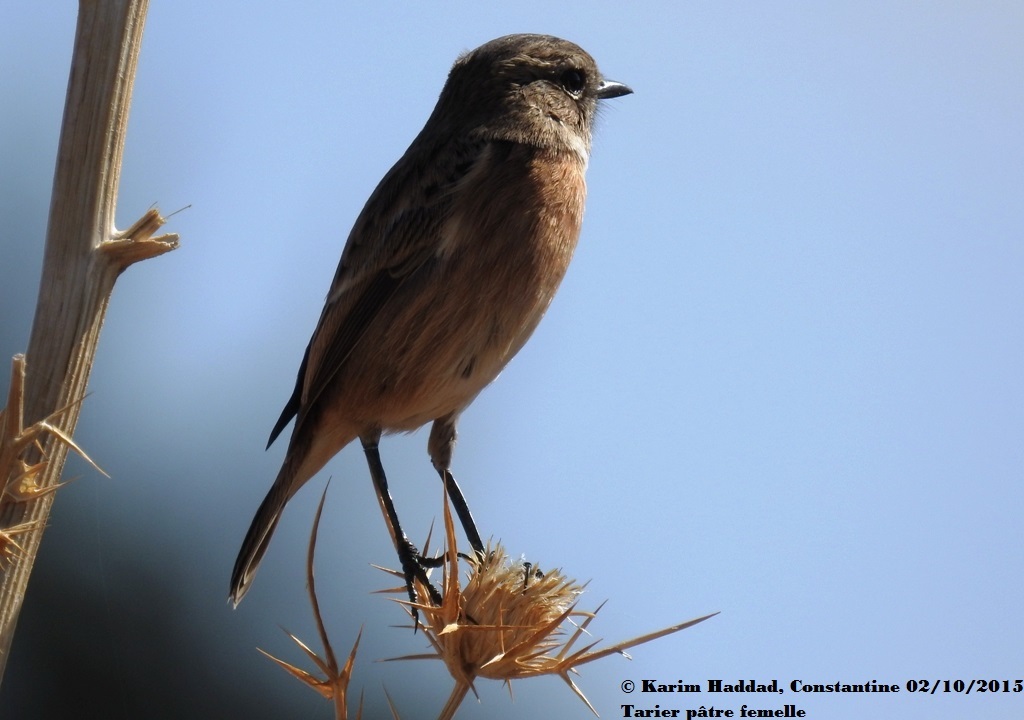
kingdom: Animalia
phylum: Chordata
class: Aves
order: Passeriformes
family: Muscicapidae
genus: Saxicola
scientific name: Saxicola rubicola
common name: European stonechat
